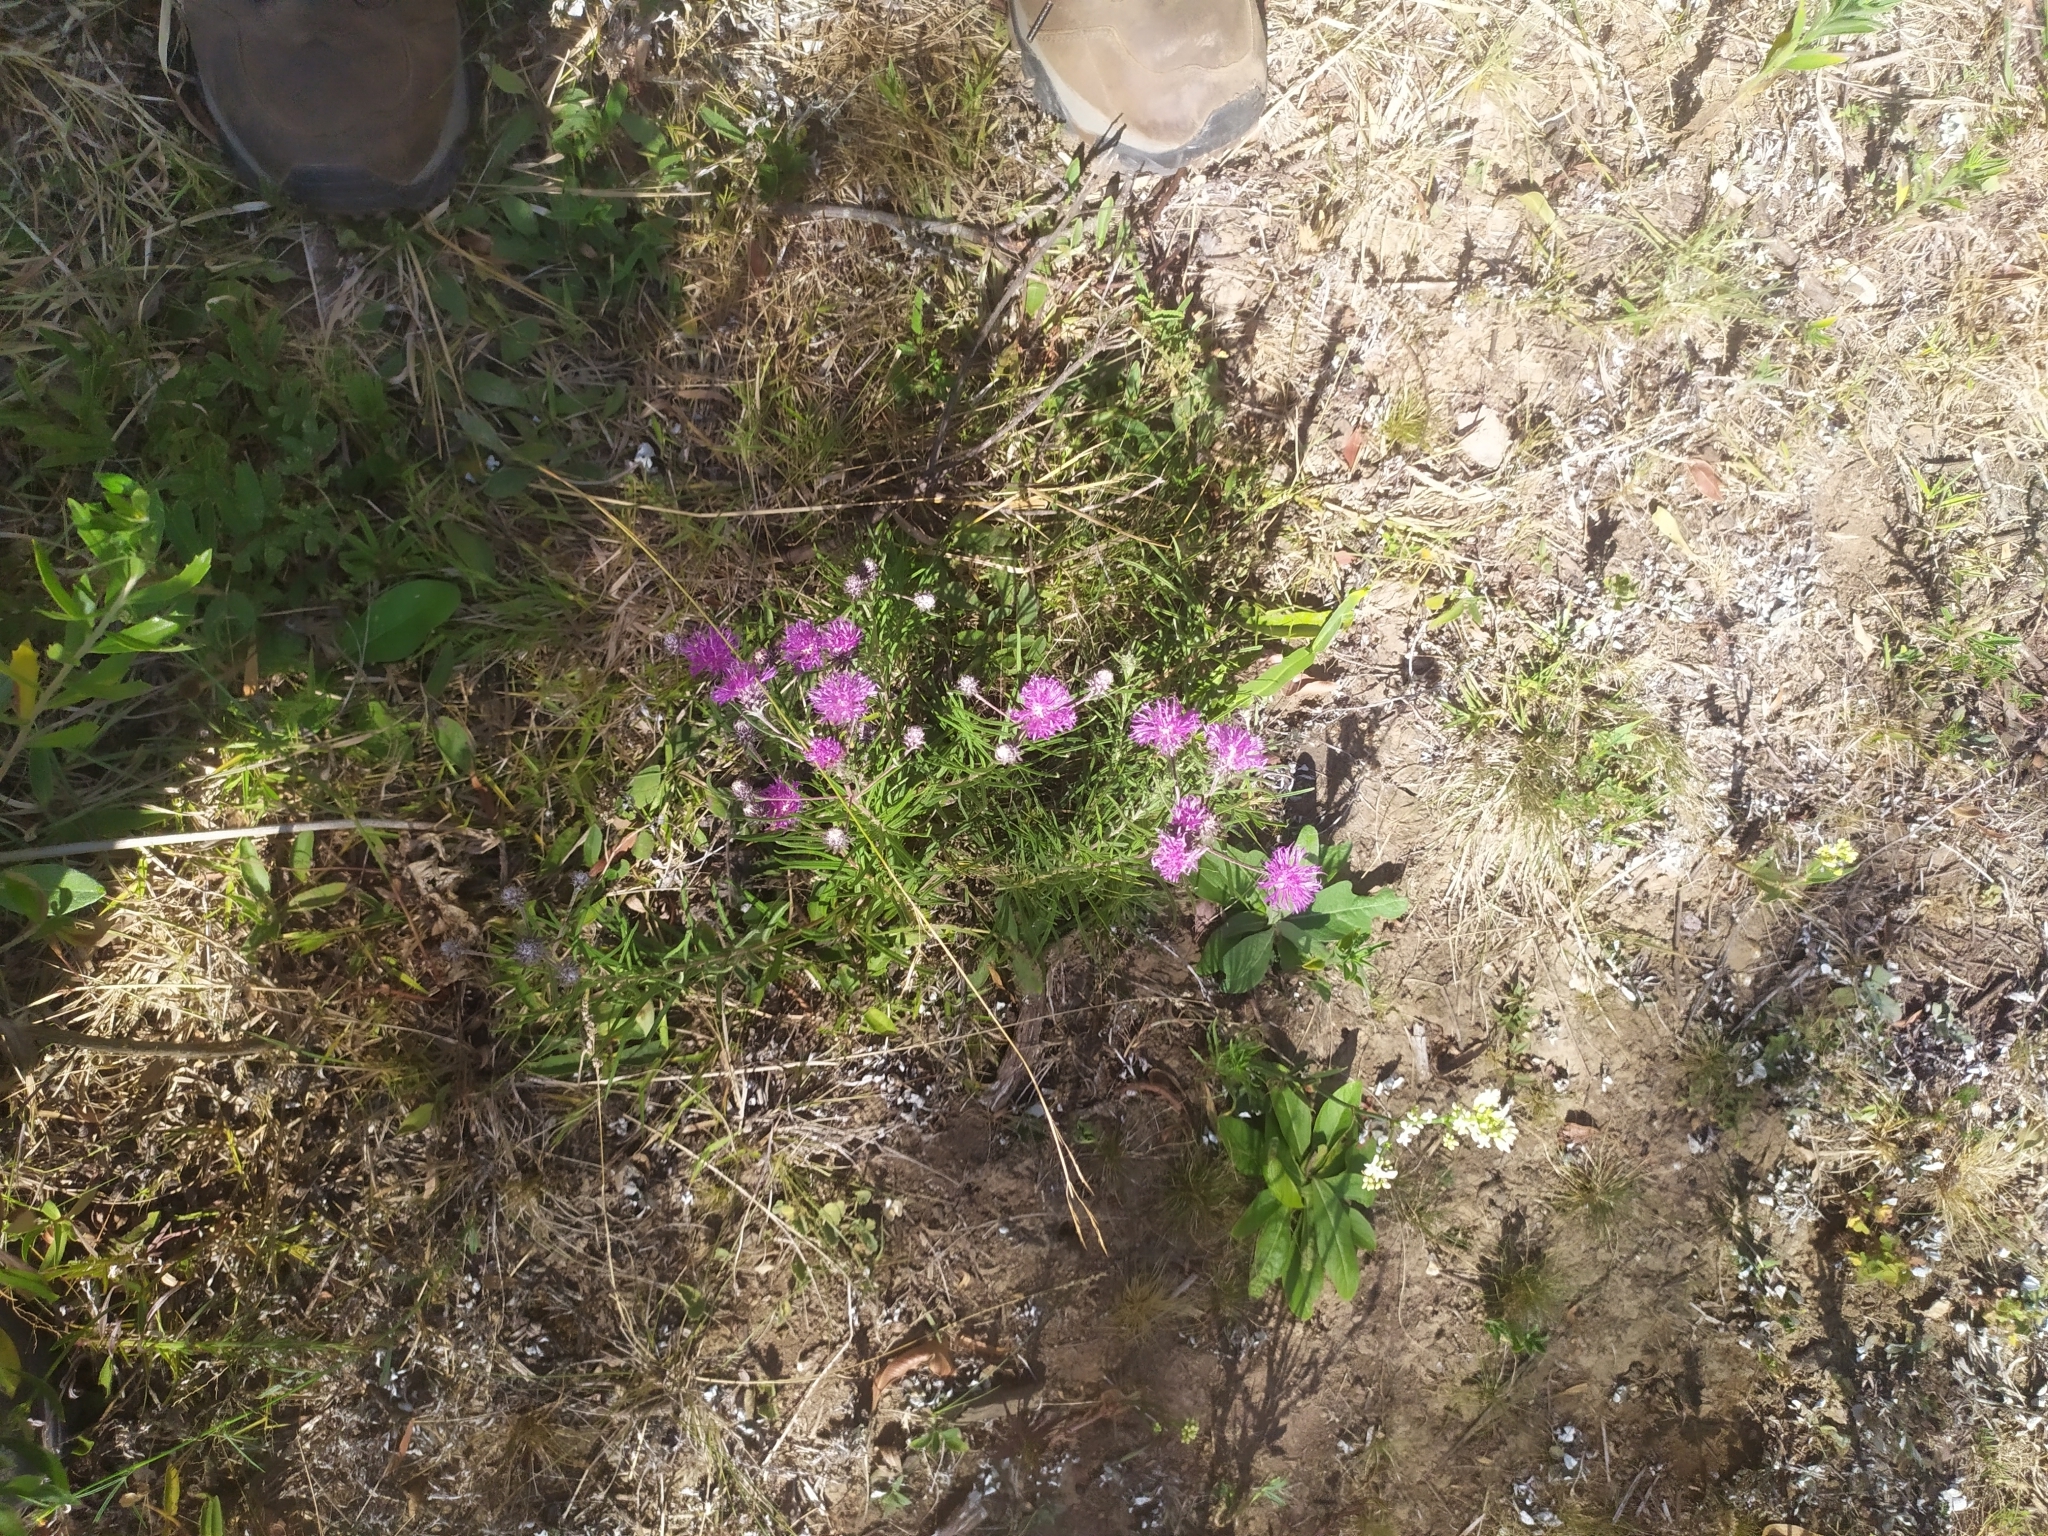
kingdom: Plantae
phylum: Tracheophyta
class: Magnoliopsida
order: Asterales
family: Asteraceae
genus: Lessingianthus
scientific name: Lessingianthus plantaginodes
